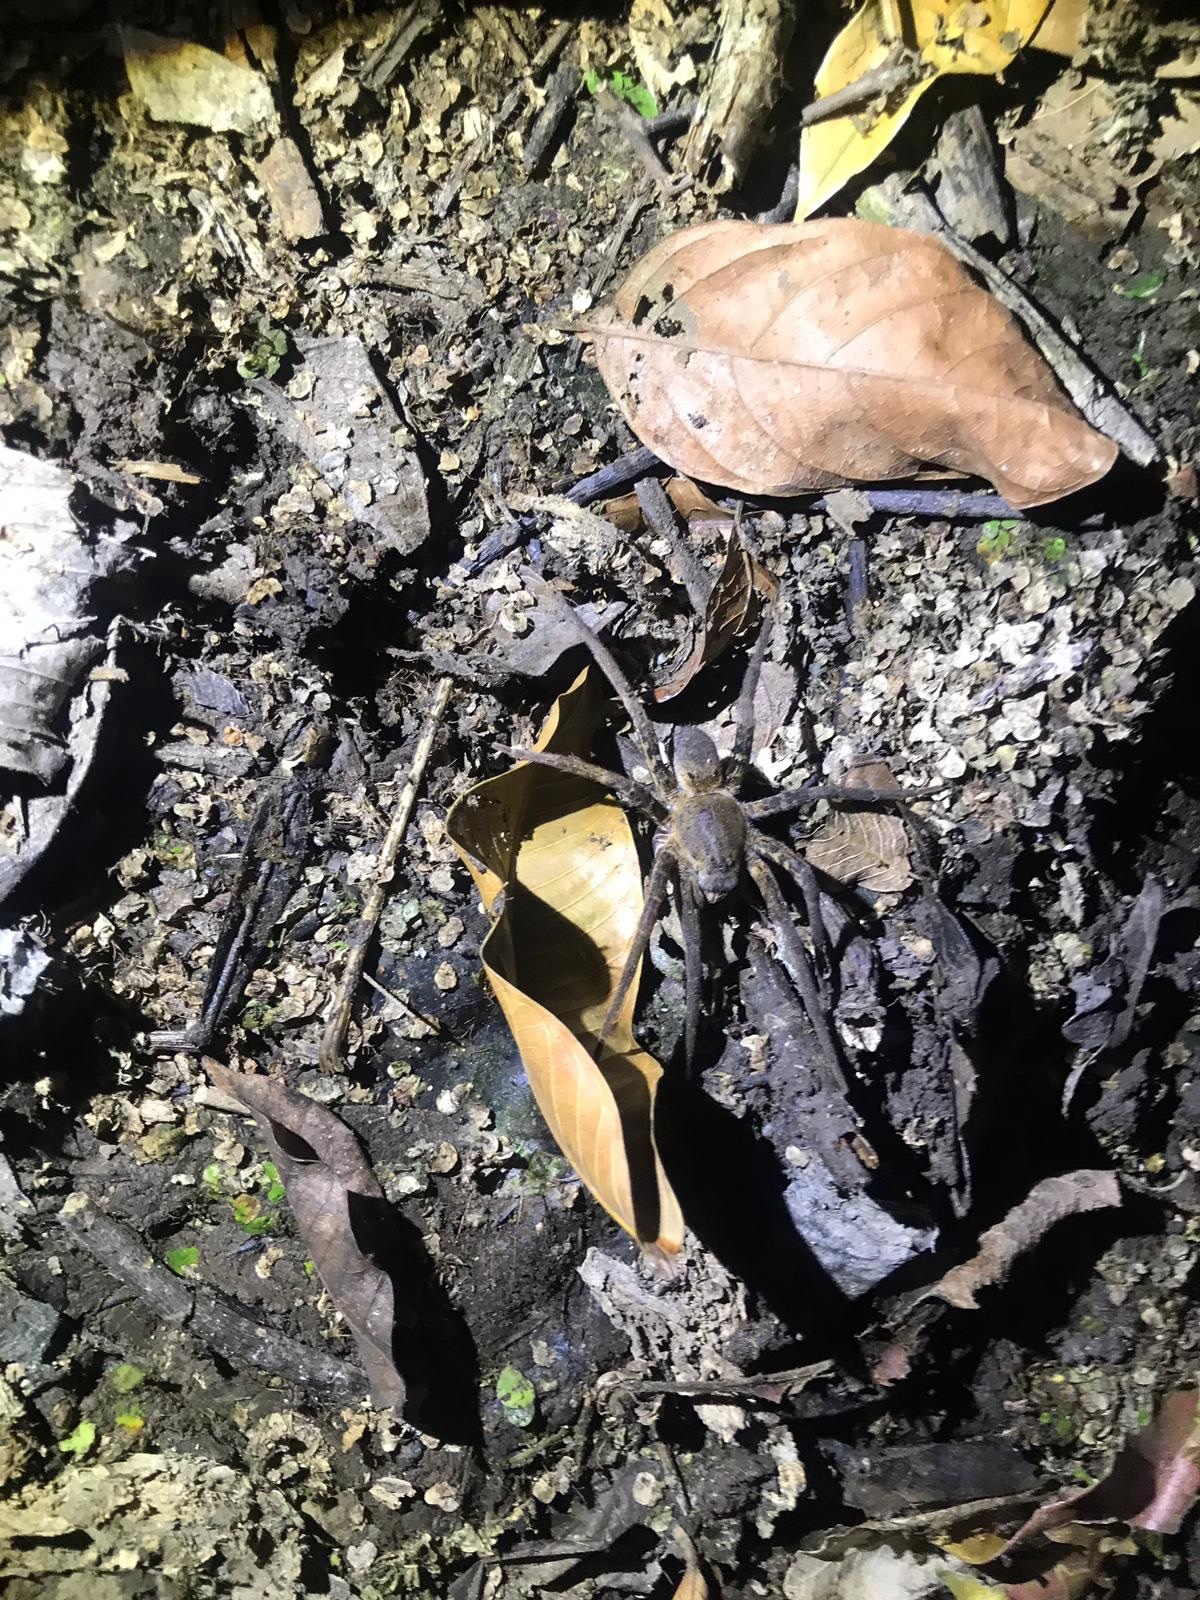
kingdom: Animalia
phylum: Arthropoda
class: Arachnida
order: Araneae
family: Ctenidae
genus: Ancylometes
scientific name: Ancylometes bogotensis
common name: Wandering spiders
